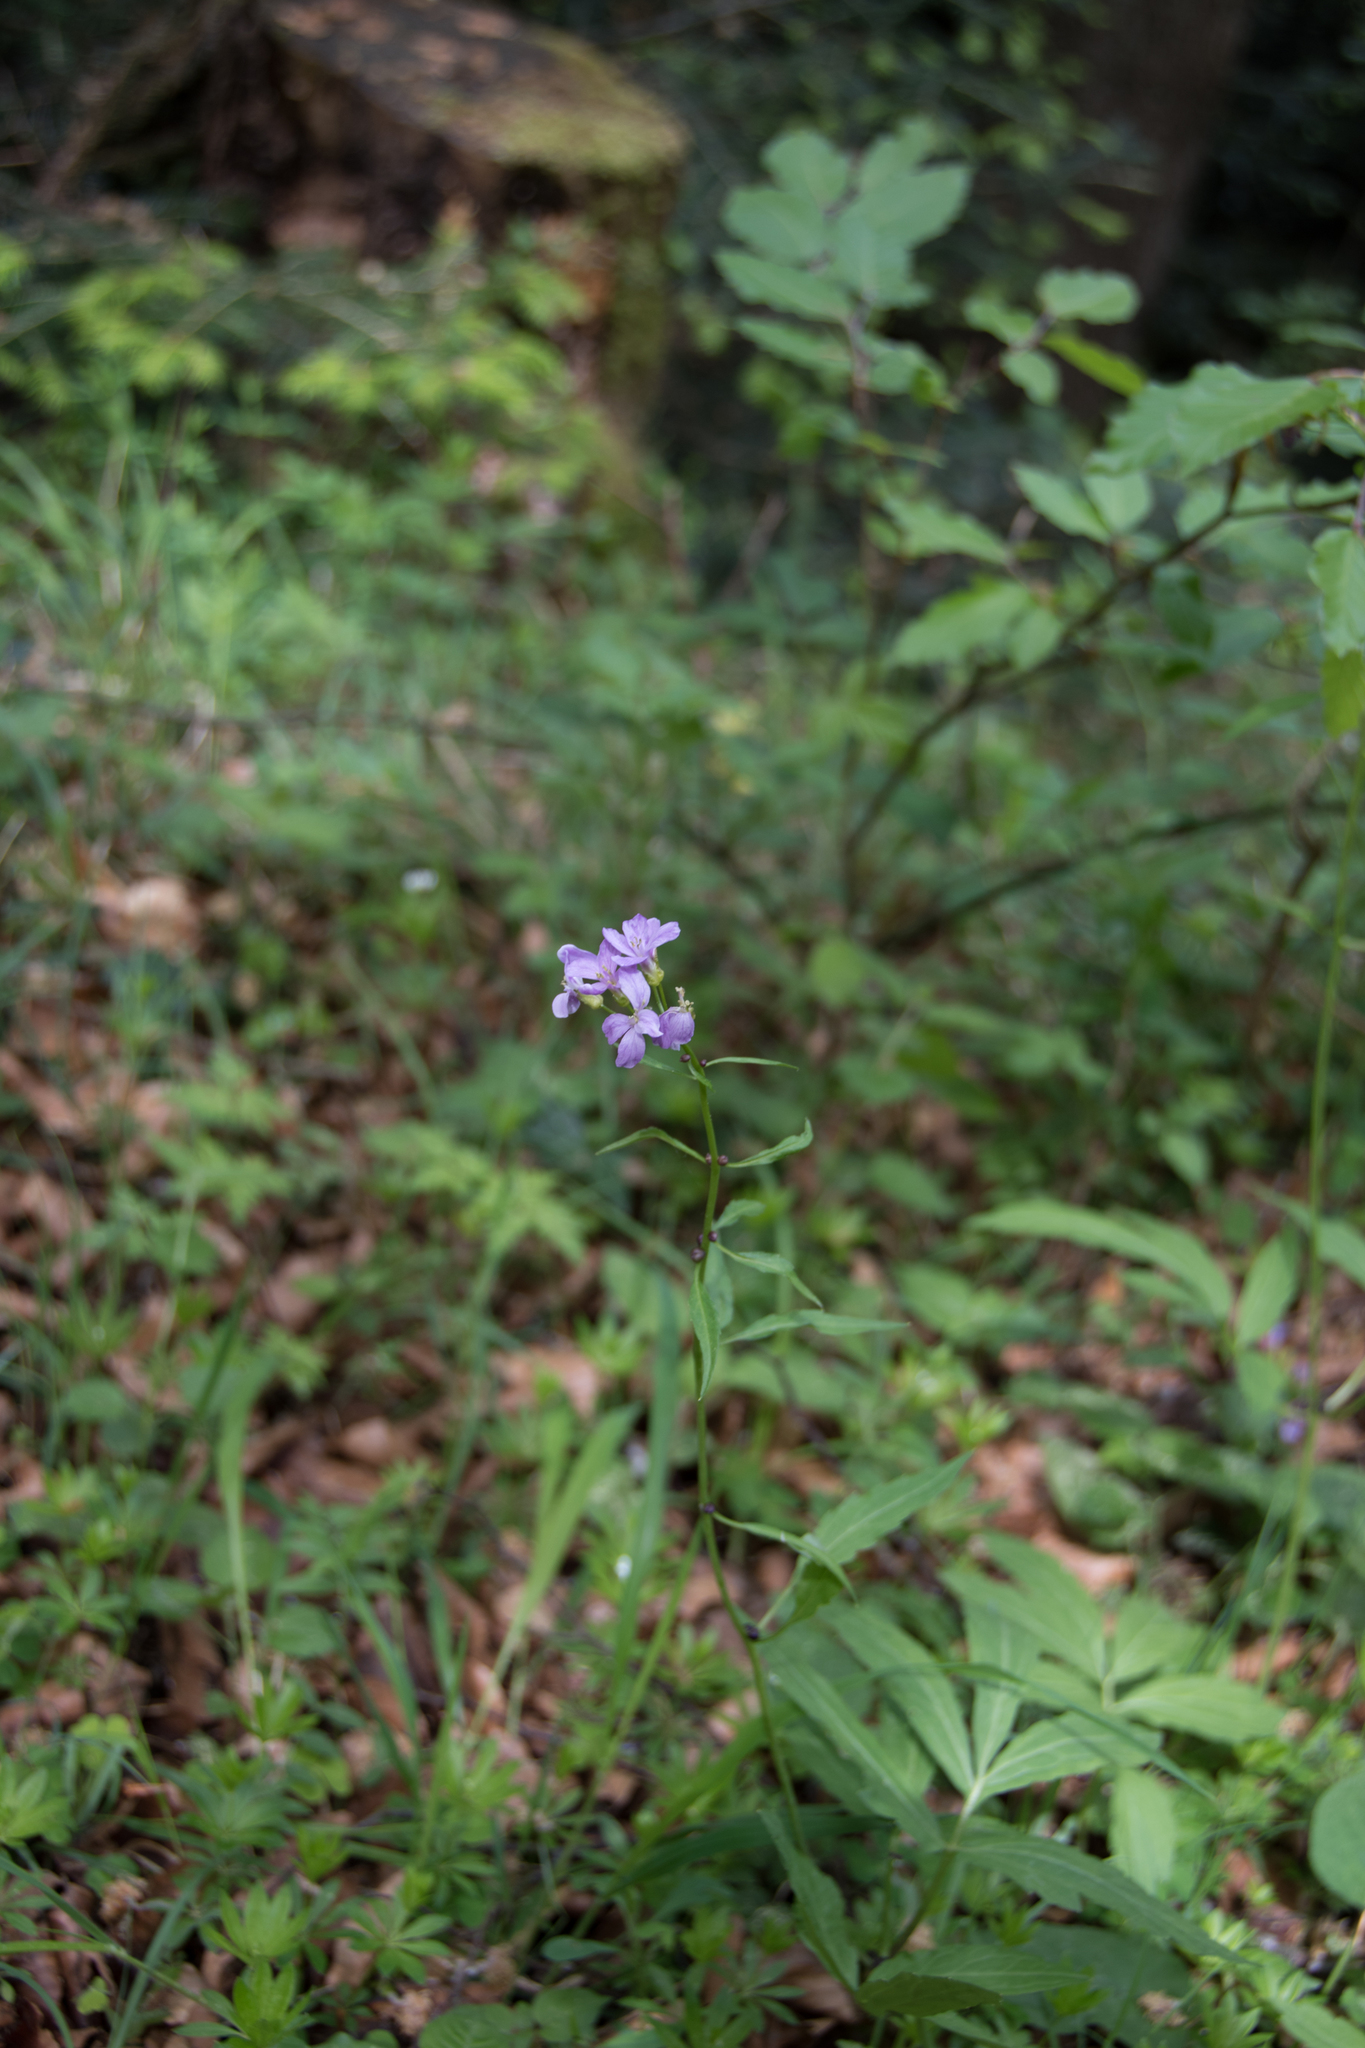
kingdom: Plantae
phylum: Tracheophyta
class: Magnoliopsida
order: Brassicales
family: Brassicaceae
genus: Cardamine
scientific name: Cardamine bulbifera
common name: Coralroot bittercress
